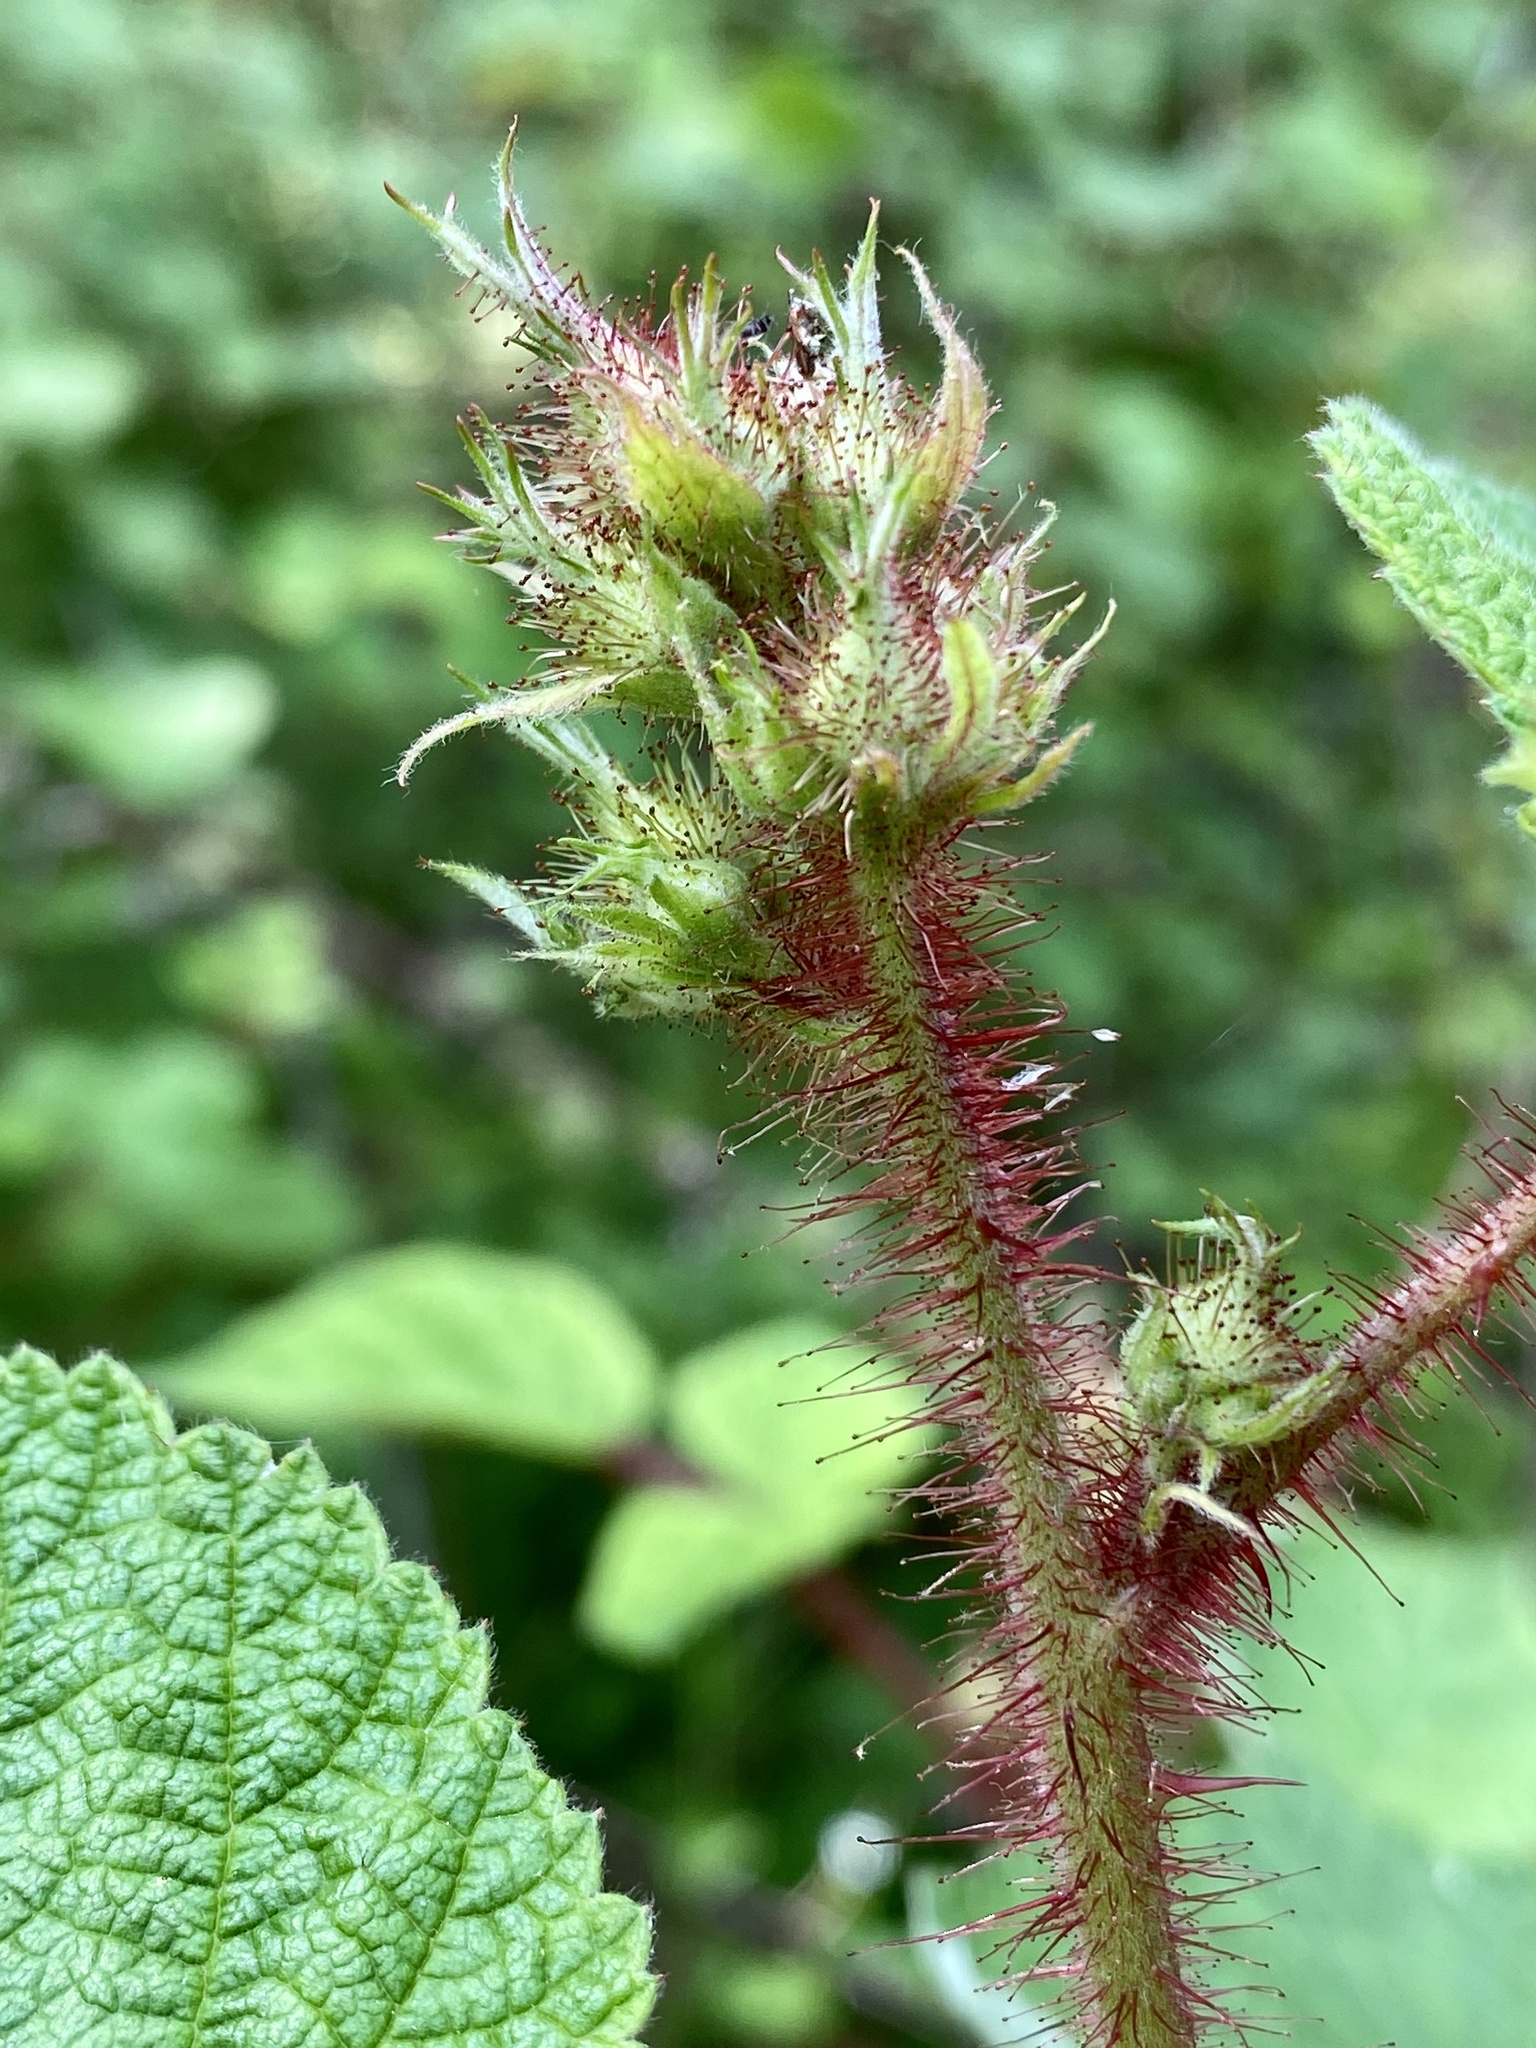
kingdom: Plantae
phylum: Tracheophyta
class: Magnoliopsida
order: Rosales
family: Rosaceae
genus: Rubus
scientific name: Rubus phoenicolasius
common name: Japanese wineberry
